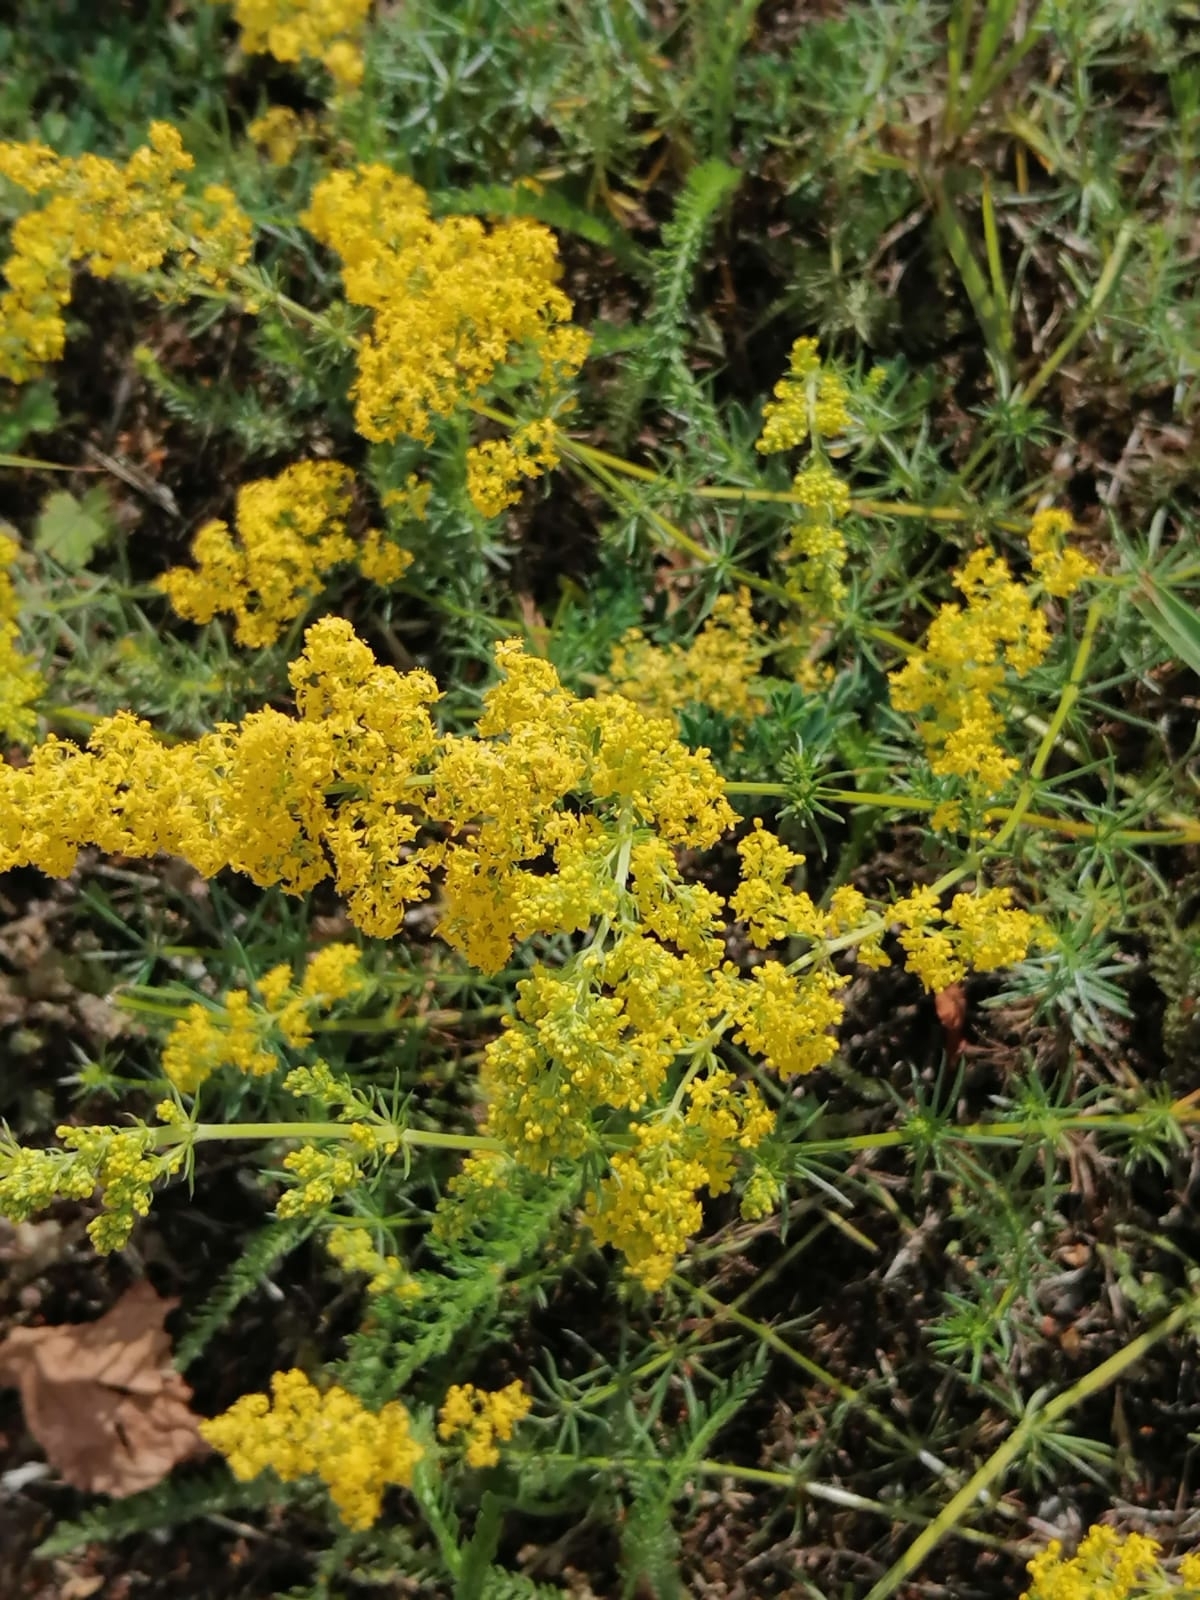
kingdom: Plantae
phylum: Tracheophyta
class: Magnoliopsida
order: Gentianales
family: Rubiaceae
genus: Galium
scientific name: Galium verum
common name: Lady's bedstraw
